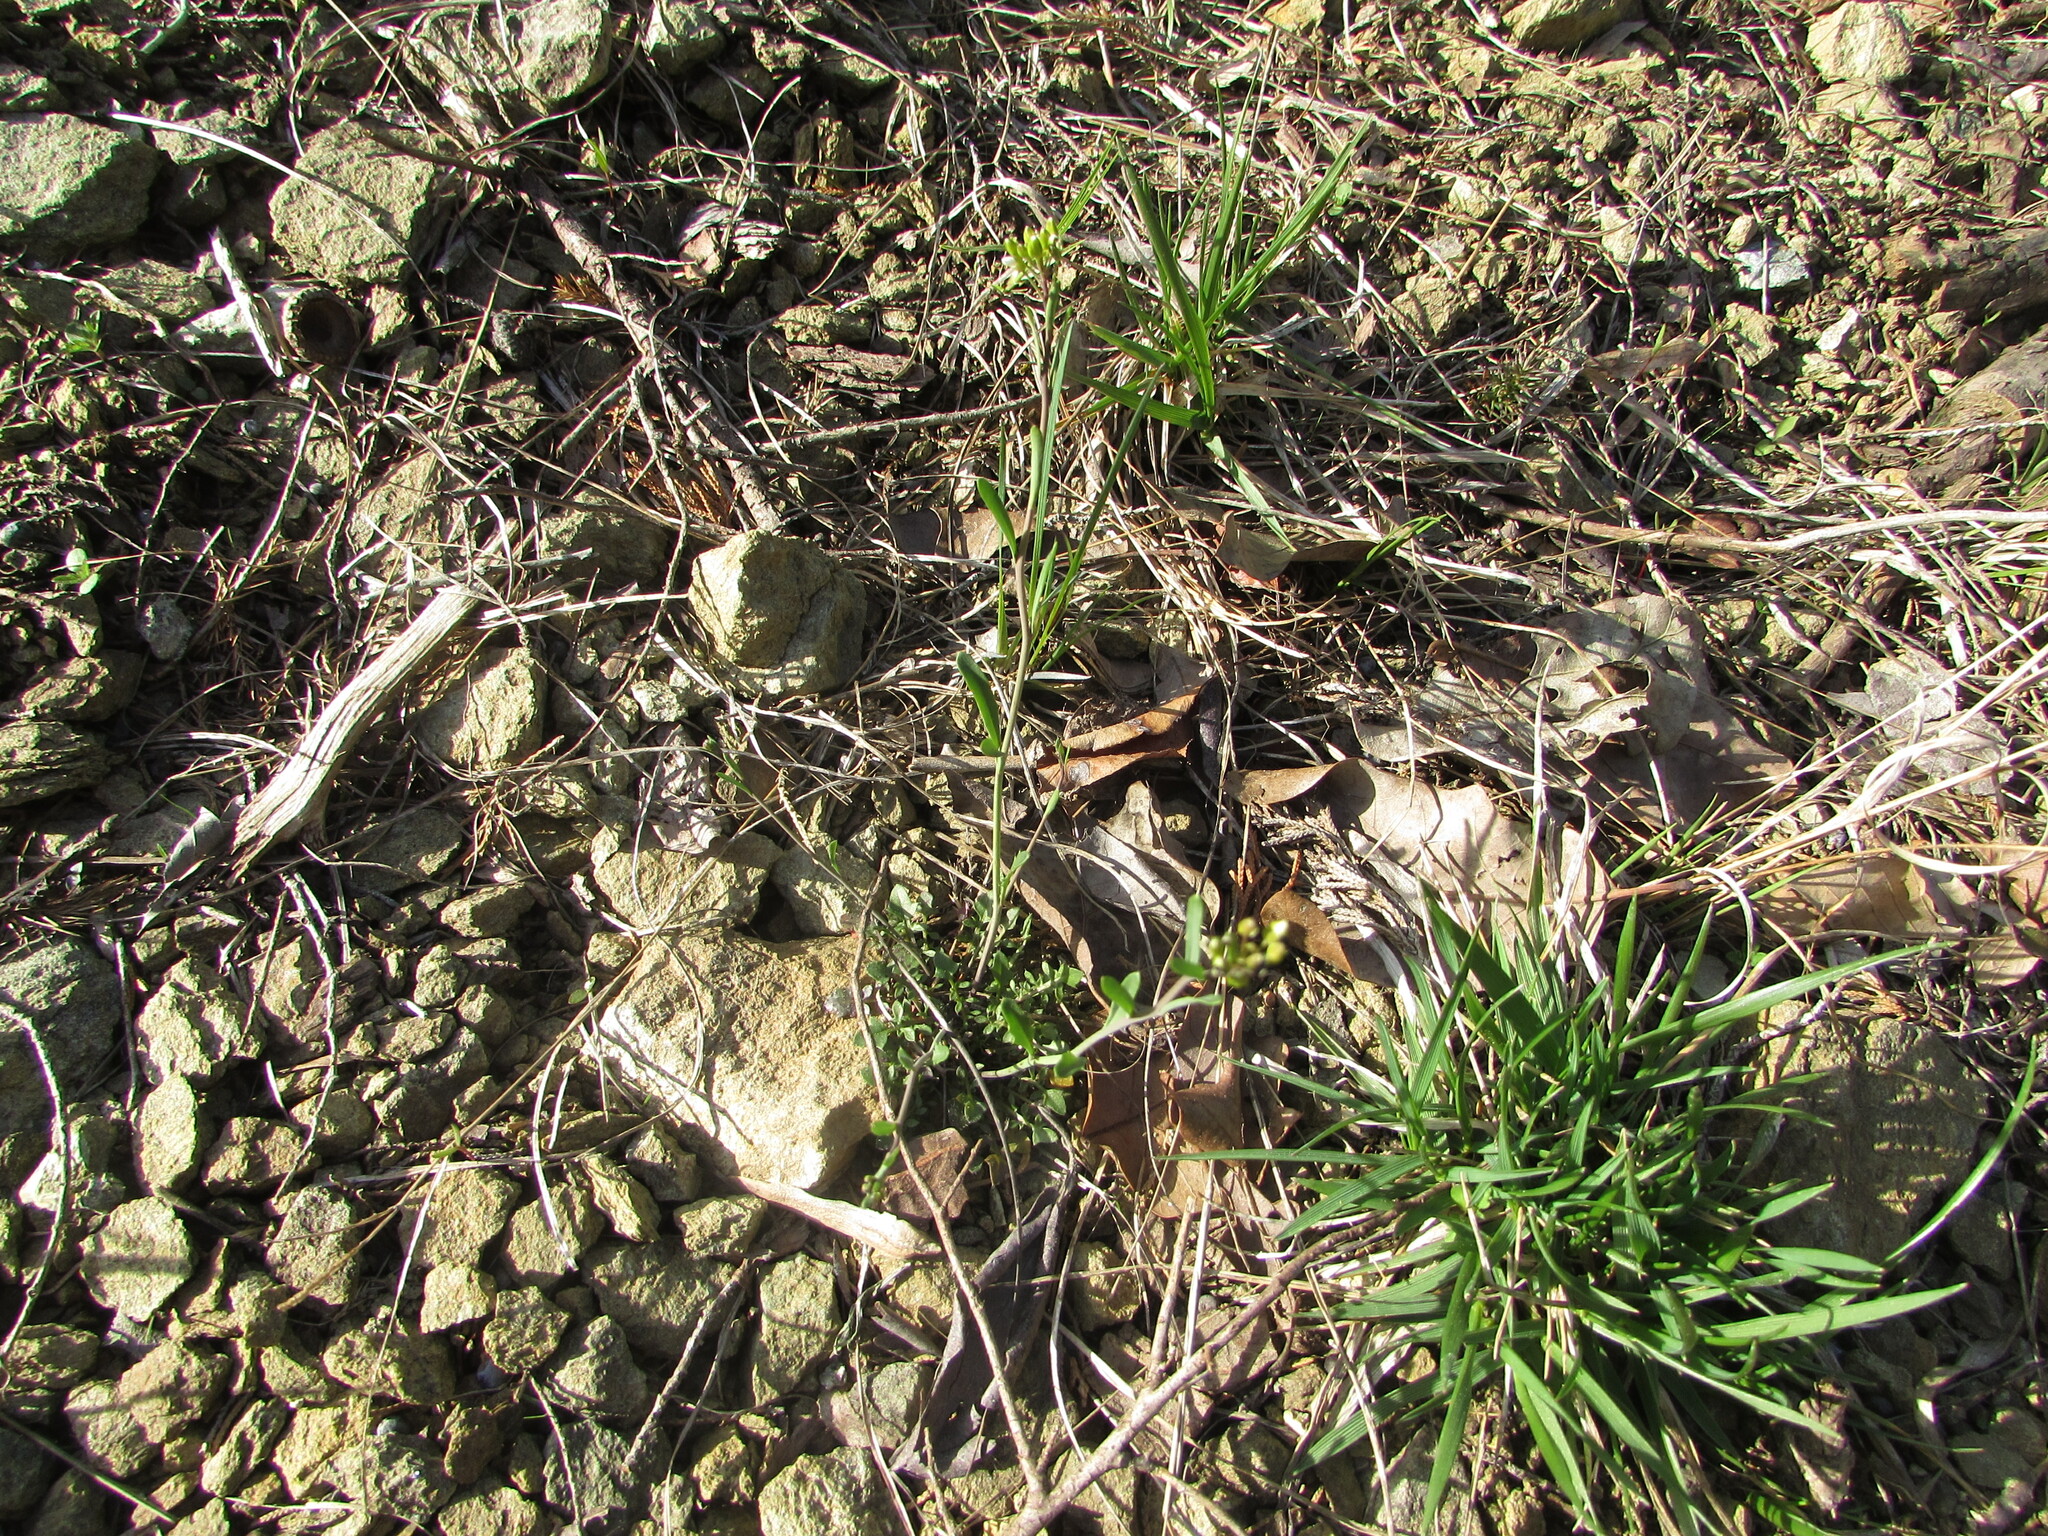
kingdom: Plantae
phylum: Tracheophyta
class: Magnoliopsida
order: Brassicales
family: Brassicaceae
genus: Arabidopsis
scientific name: Arabidopsis lyrata
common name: Lyrate rockcress
